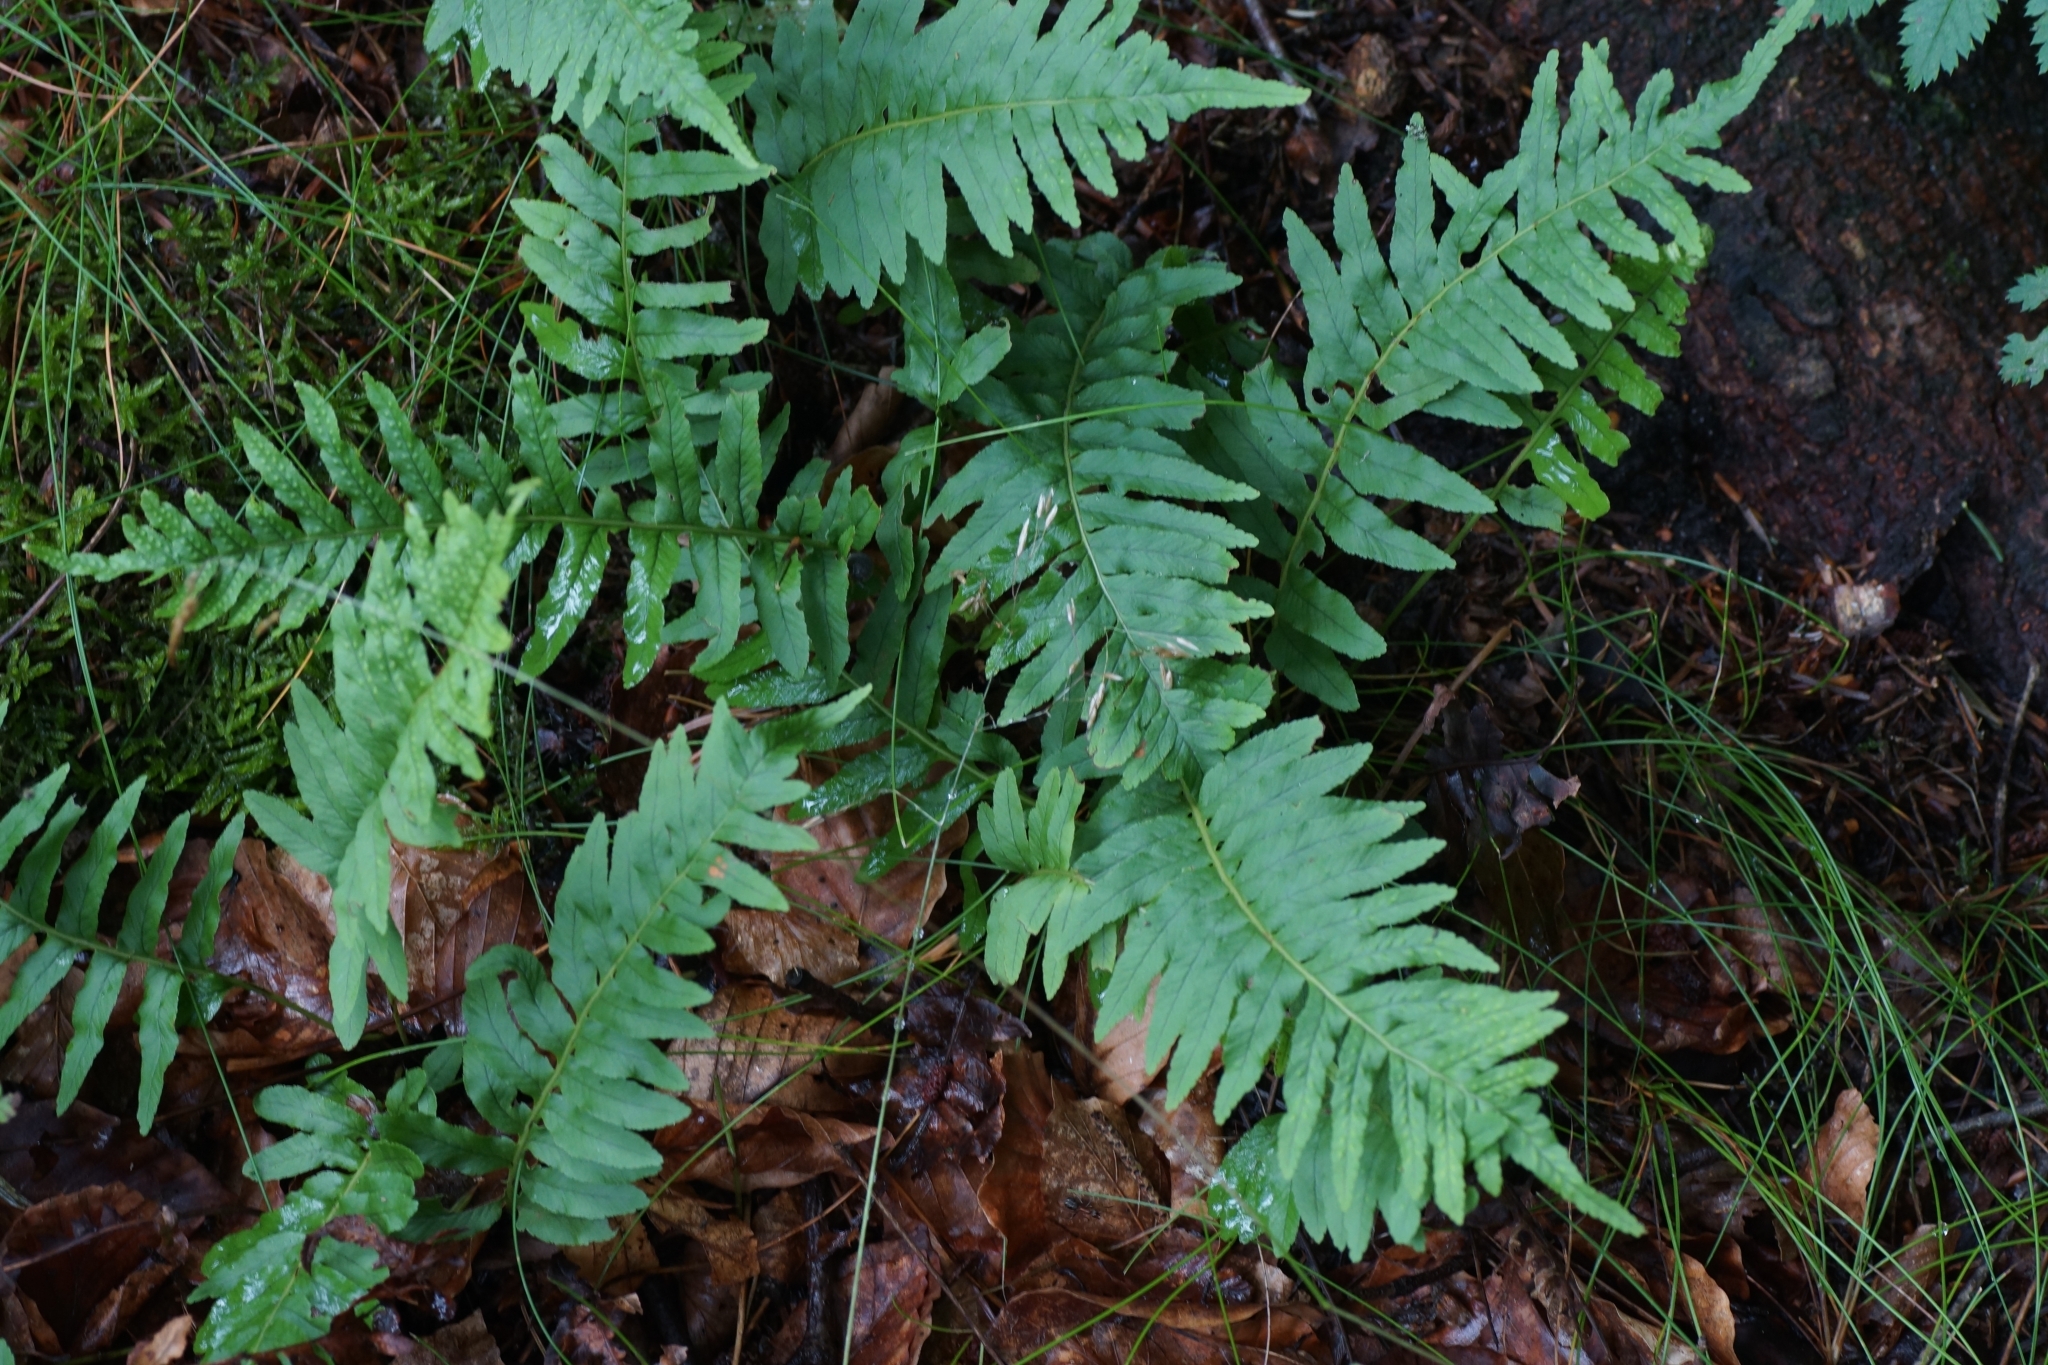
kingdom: Plantae
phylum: Tracheophyta
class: Polypodiopsida
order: Polypodiales
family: Polypodiaceae
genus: Polypodium
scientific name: Polypodium vulgare
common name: Common polypody
